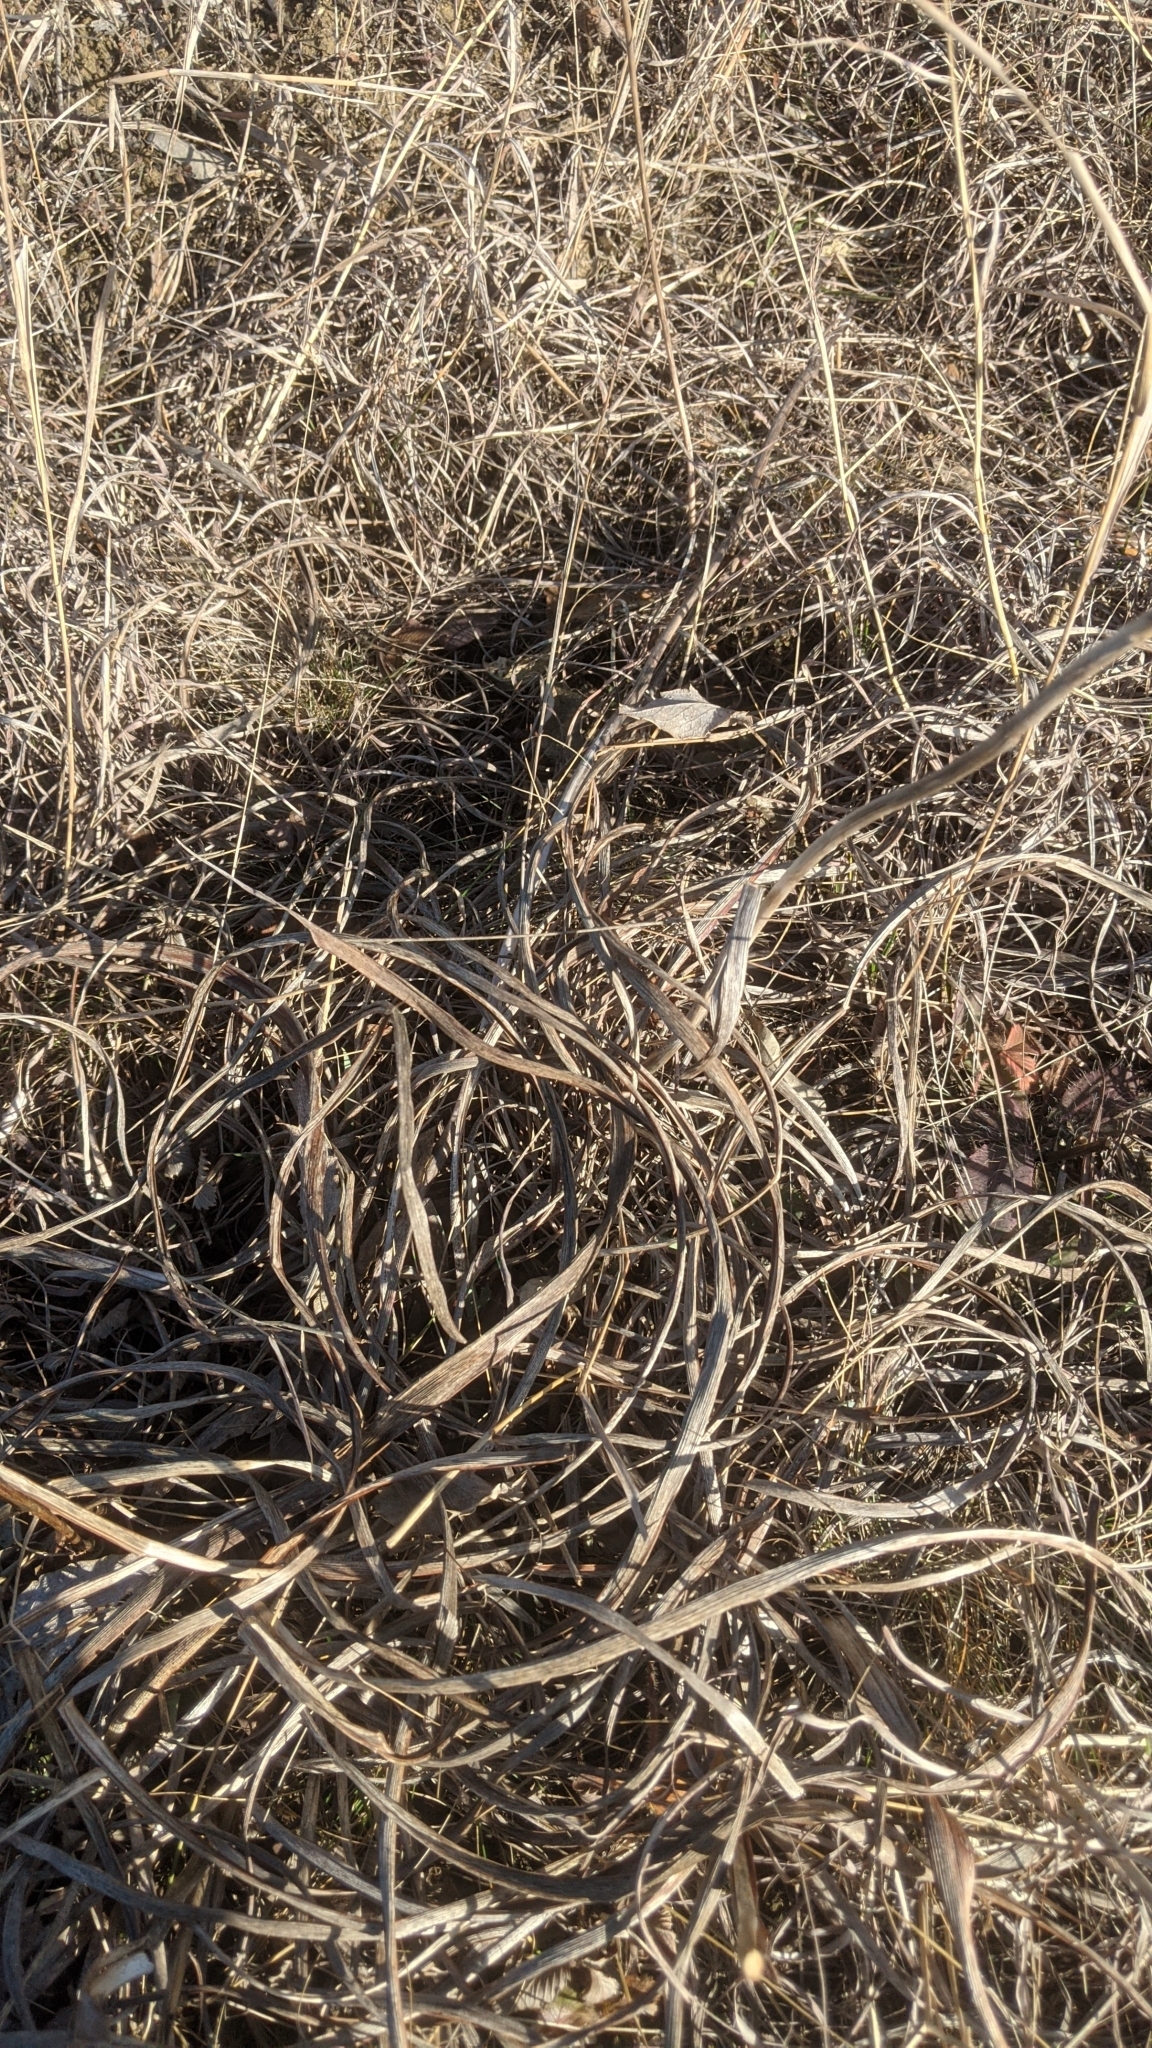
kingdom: Plantae
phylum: Tracheophyta
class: Liliopsida
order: Asparagales
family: Iridaceae
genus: Iris
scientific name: Iris sintenisii
